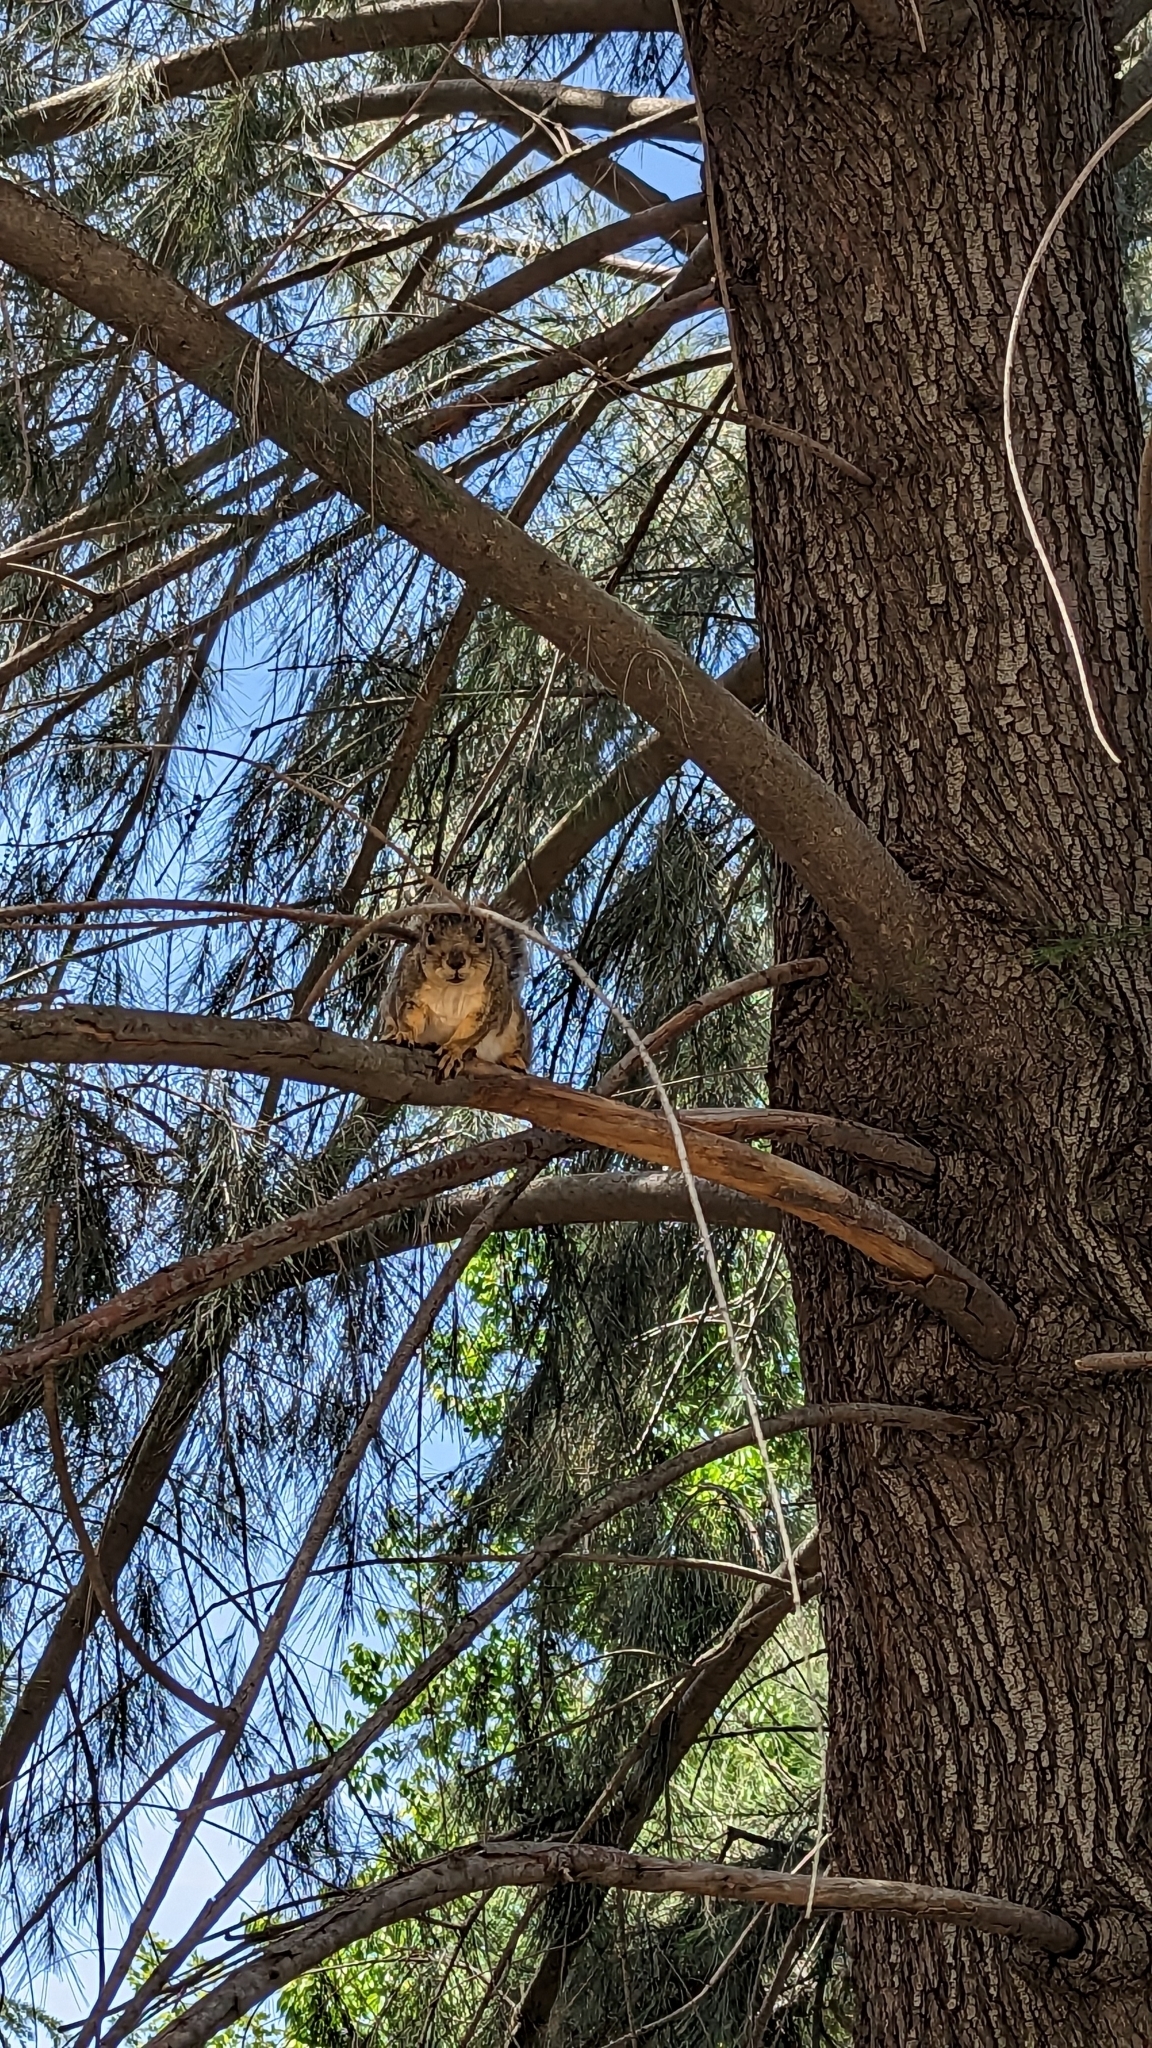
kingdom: Animalia
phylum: Chordata
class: Mammalia
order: Rodentia
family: Sciuridae
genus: Sciurus
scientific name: Sciurus niger
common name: Fox squirrel
